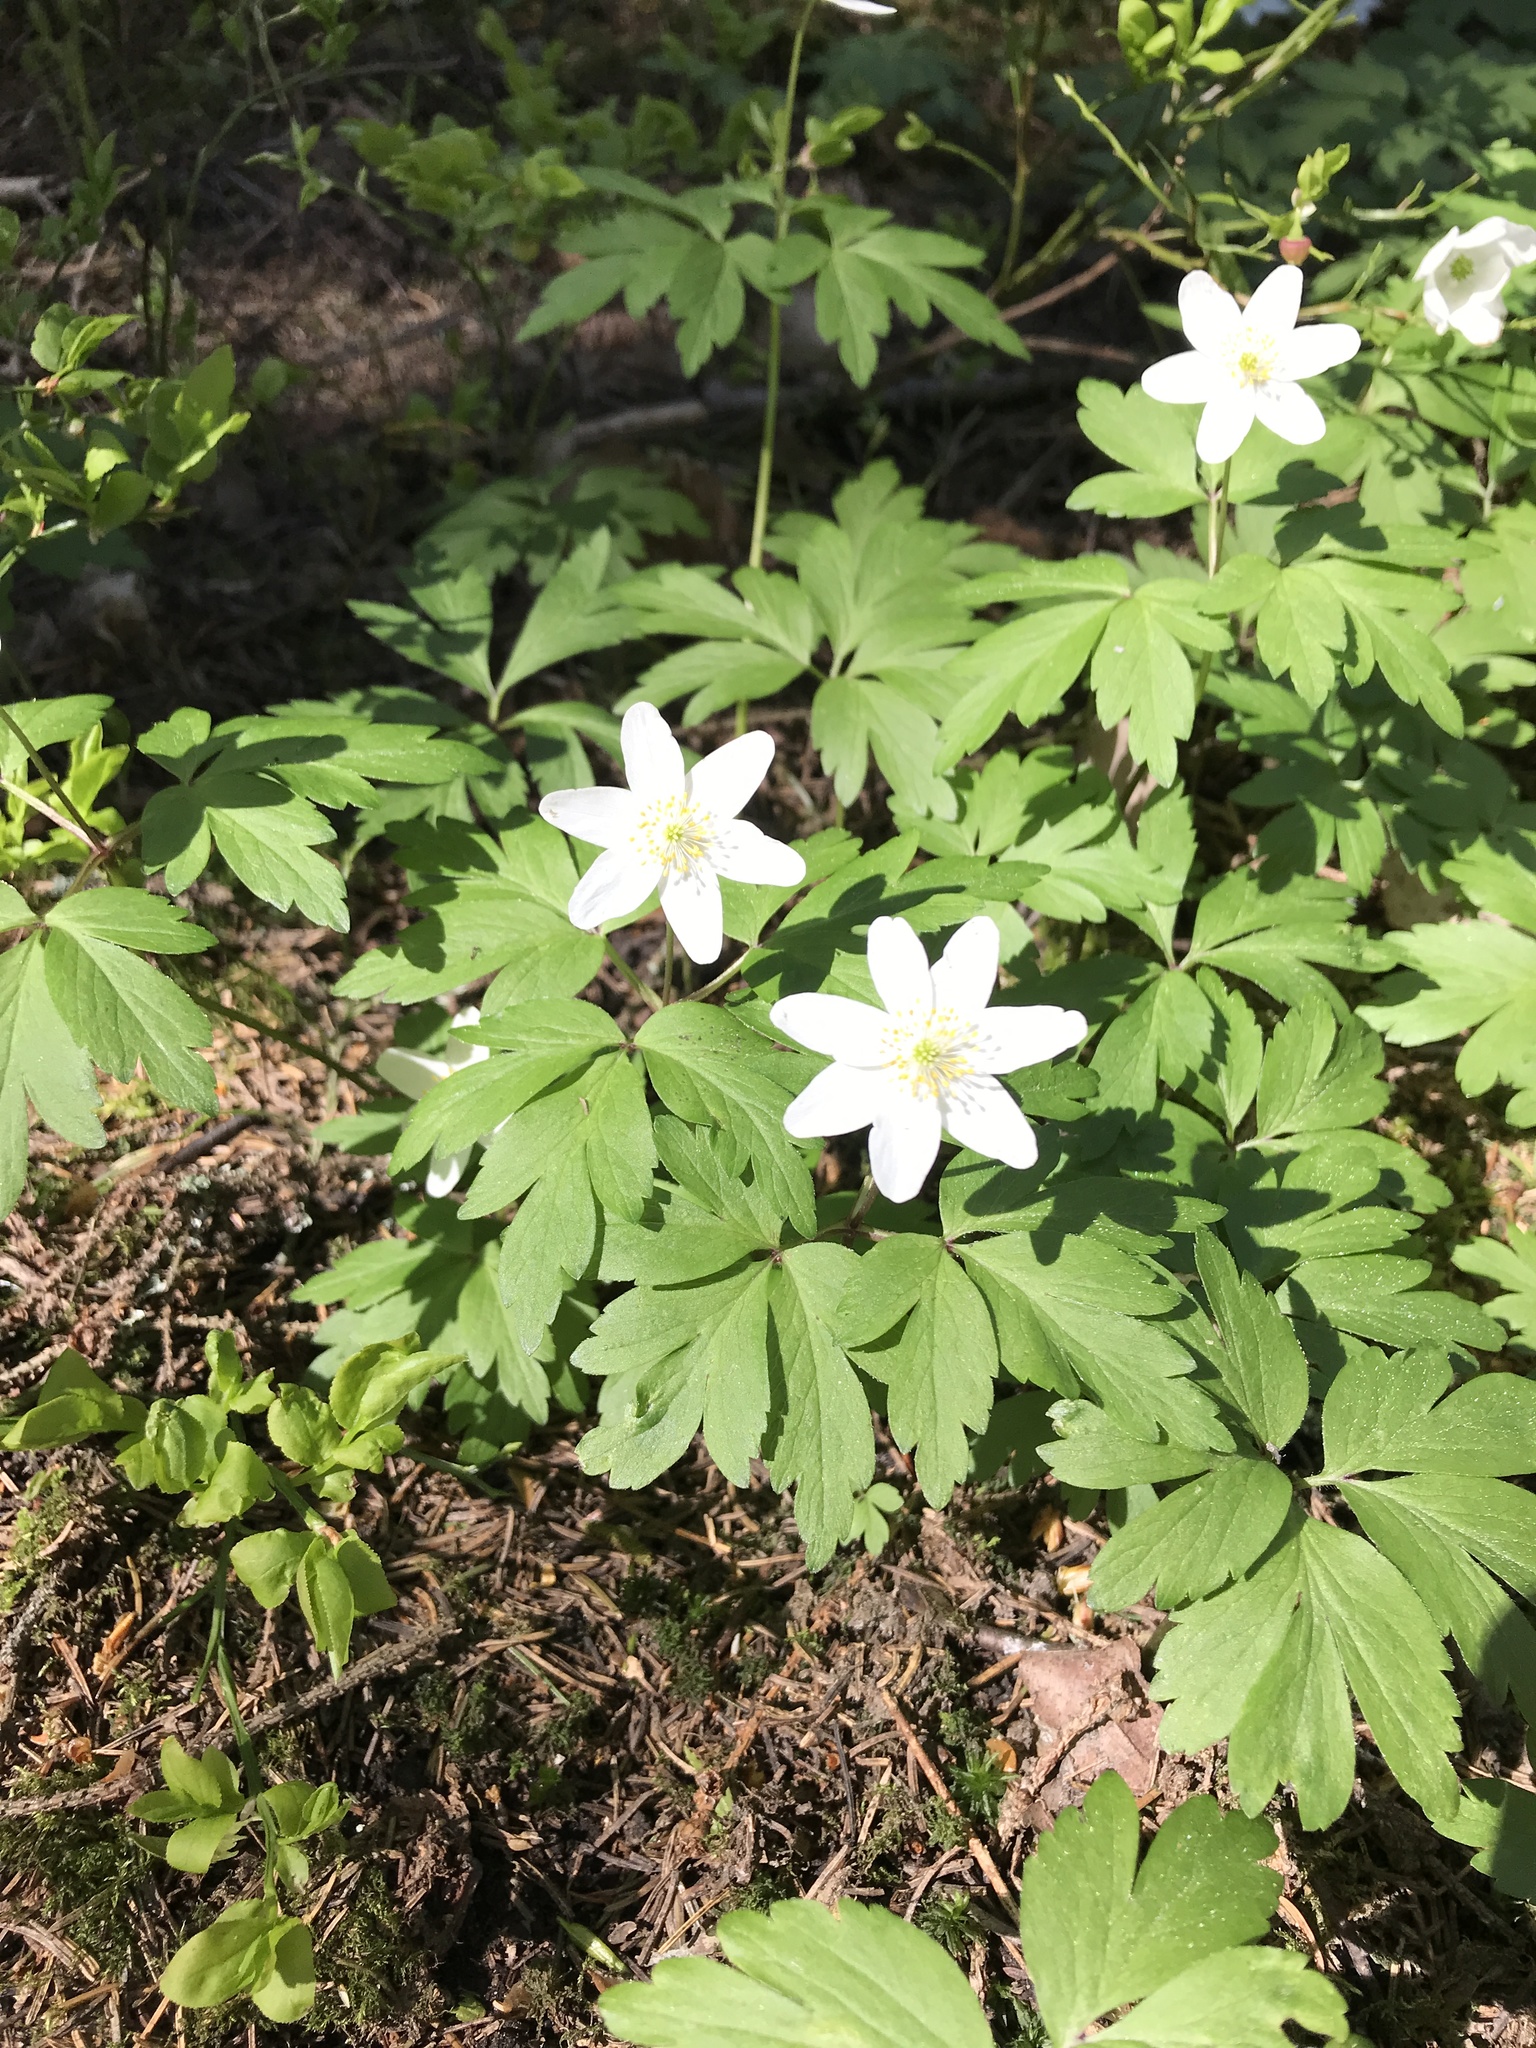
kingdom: Plantae
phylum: Tracheophyta
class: Magnoliopsida
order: Ranunculales
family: Ranunculaceae
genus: Anemone
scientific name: Anemone nemorosa
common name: Wood anemone
